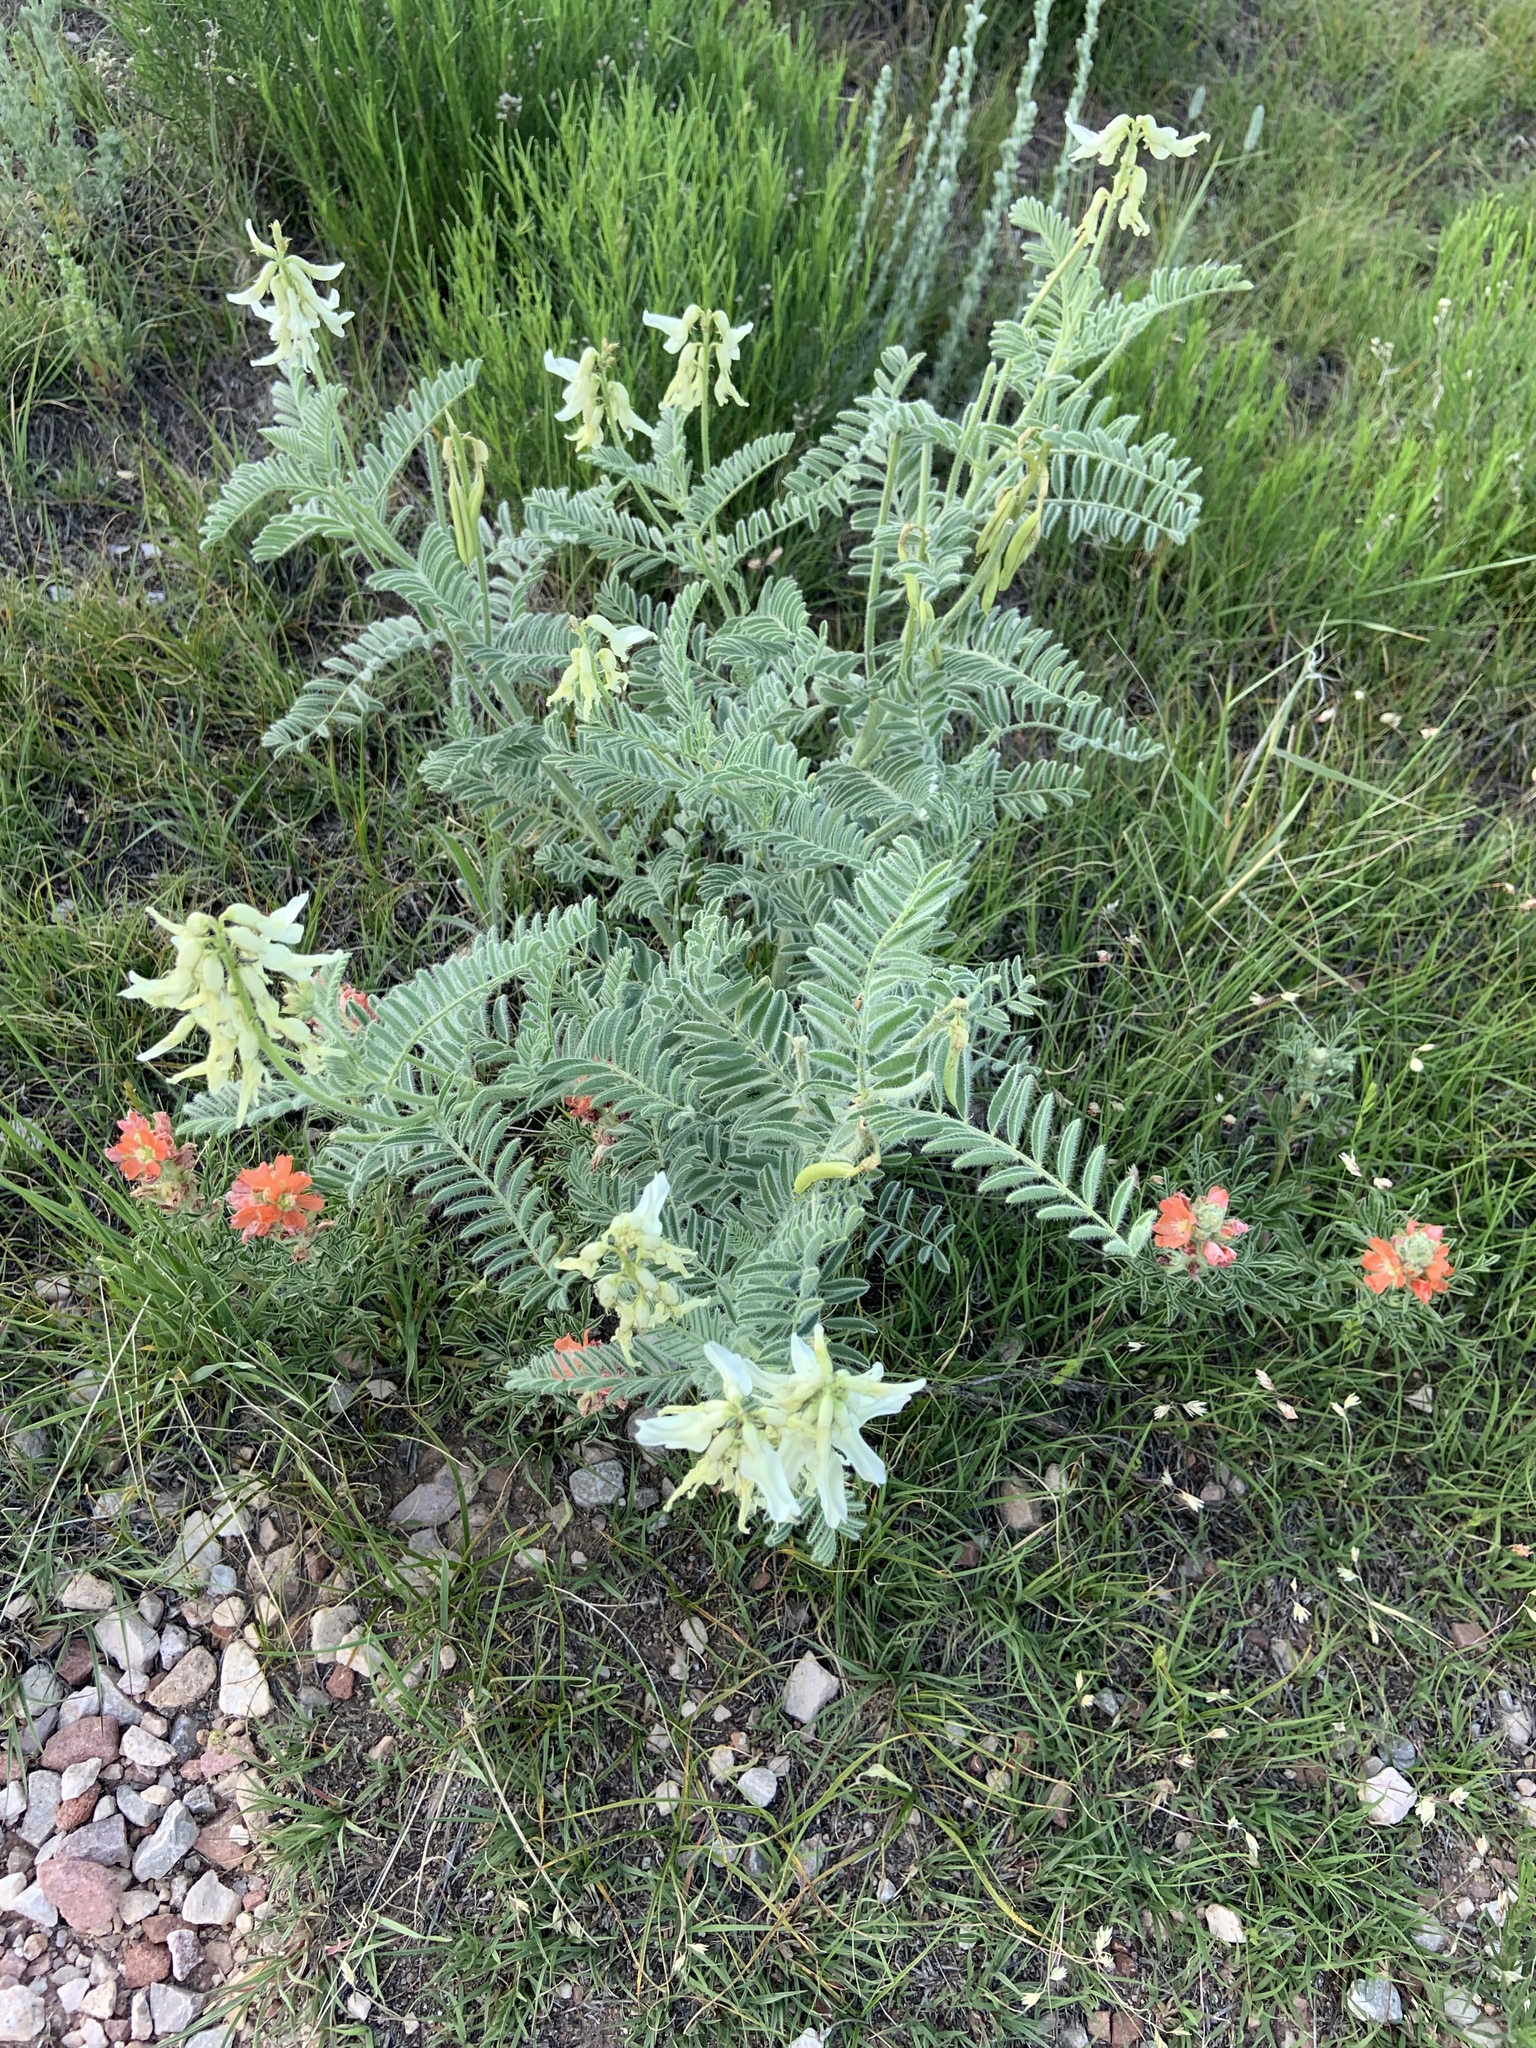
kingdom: Plantae
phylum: Tracheophyta
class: Magnoliopsida
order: Fabales
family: Fabaceae
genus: Astragalus
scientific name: Astragalus drummondii
